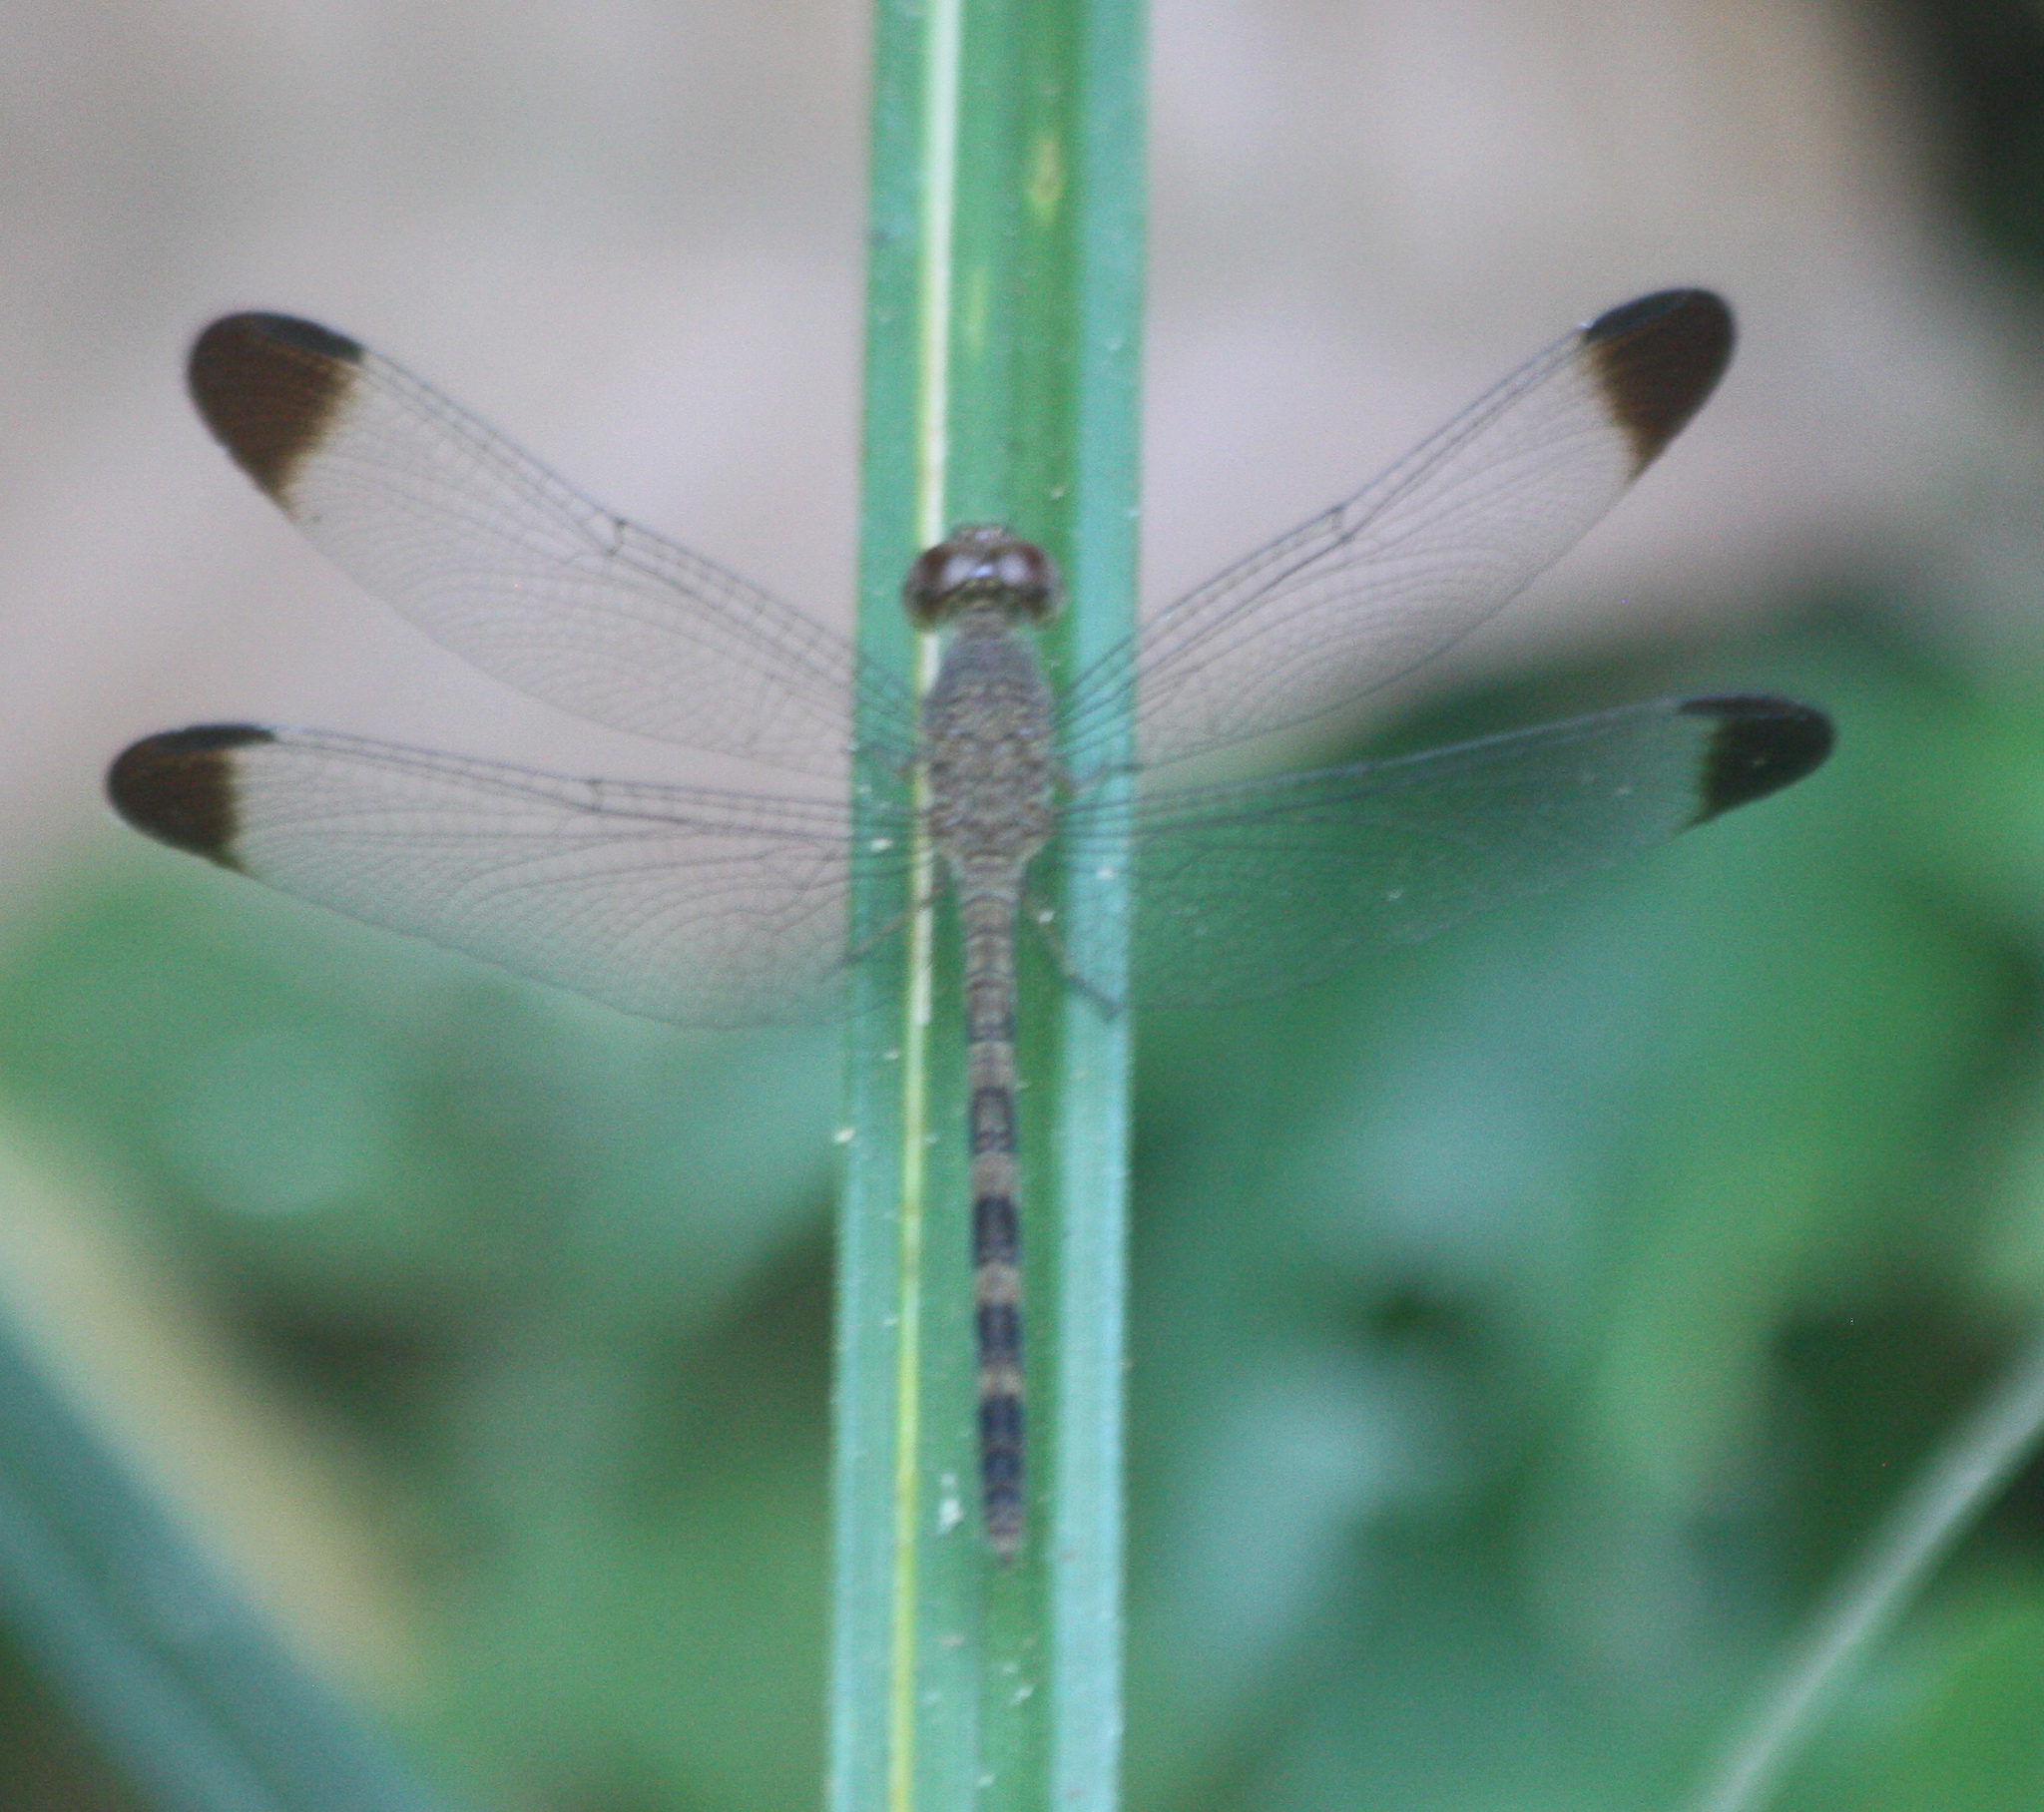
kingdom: Animalia
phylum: Arthropoda
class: Insecta
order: Odonata
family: Libellulidae
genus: Uracis
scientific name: Uracis imbuta
